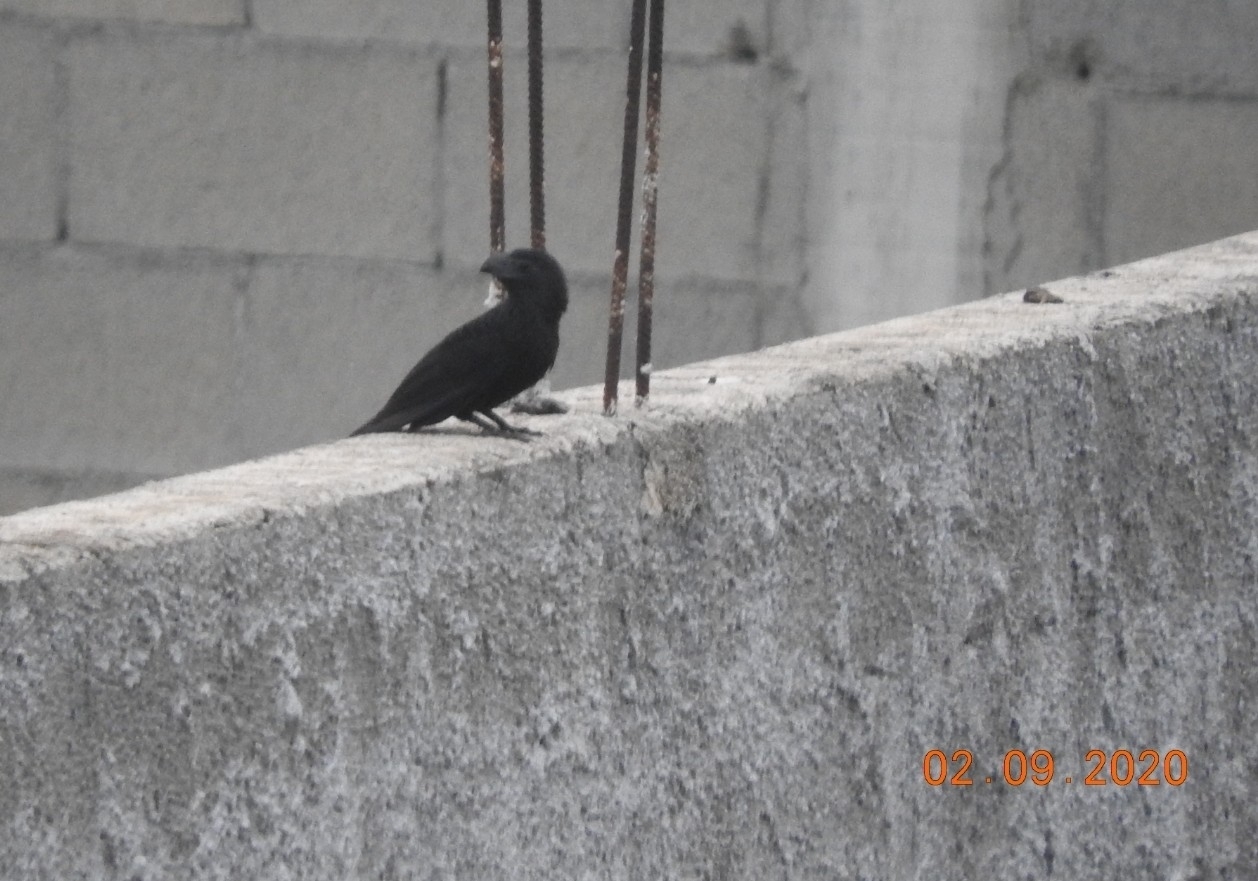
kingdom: Animalia
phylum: Chordata
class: Aves
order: Cuculiformes
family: Cuculidae
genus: Crotophaga
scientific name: Crotophaga sulcirostris
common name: Groove-billed ani
